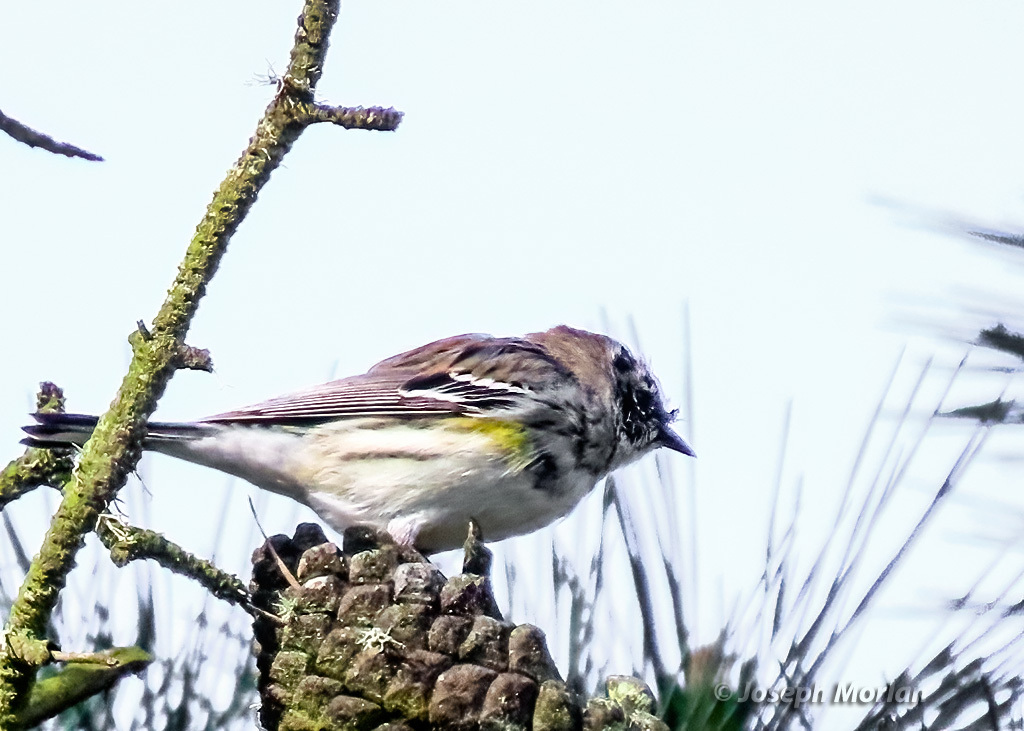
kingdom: Animalia
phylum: Chordata
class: Aves
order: Passeriformes
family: Parulidae
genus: Setophaga
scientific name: Setophaga coronata
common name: Myrtle warbler
